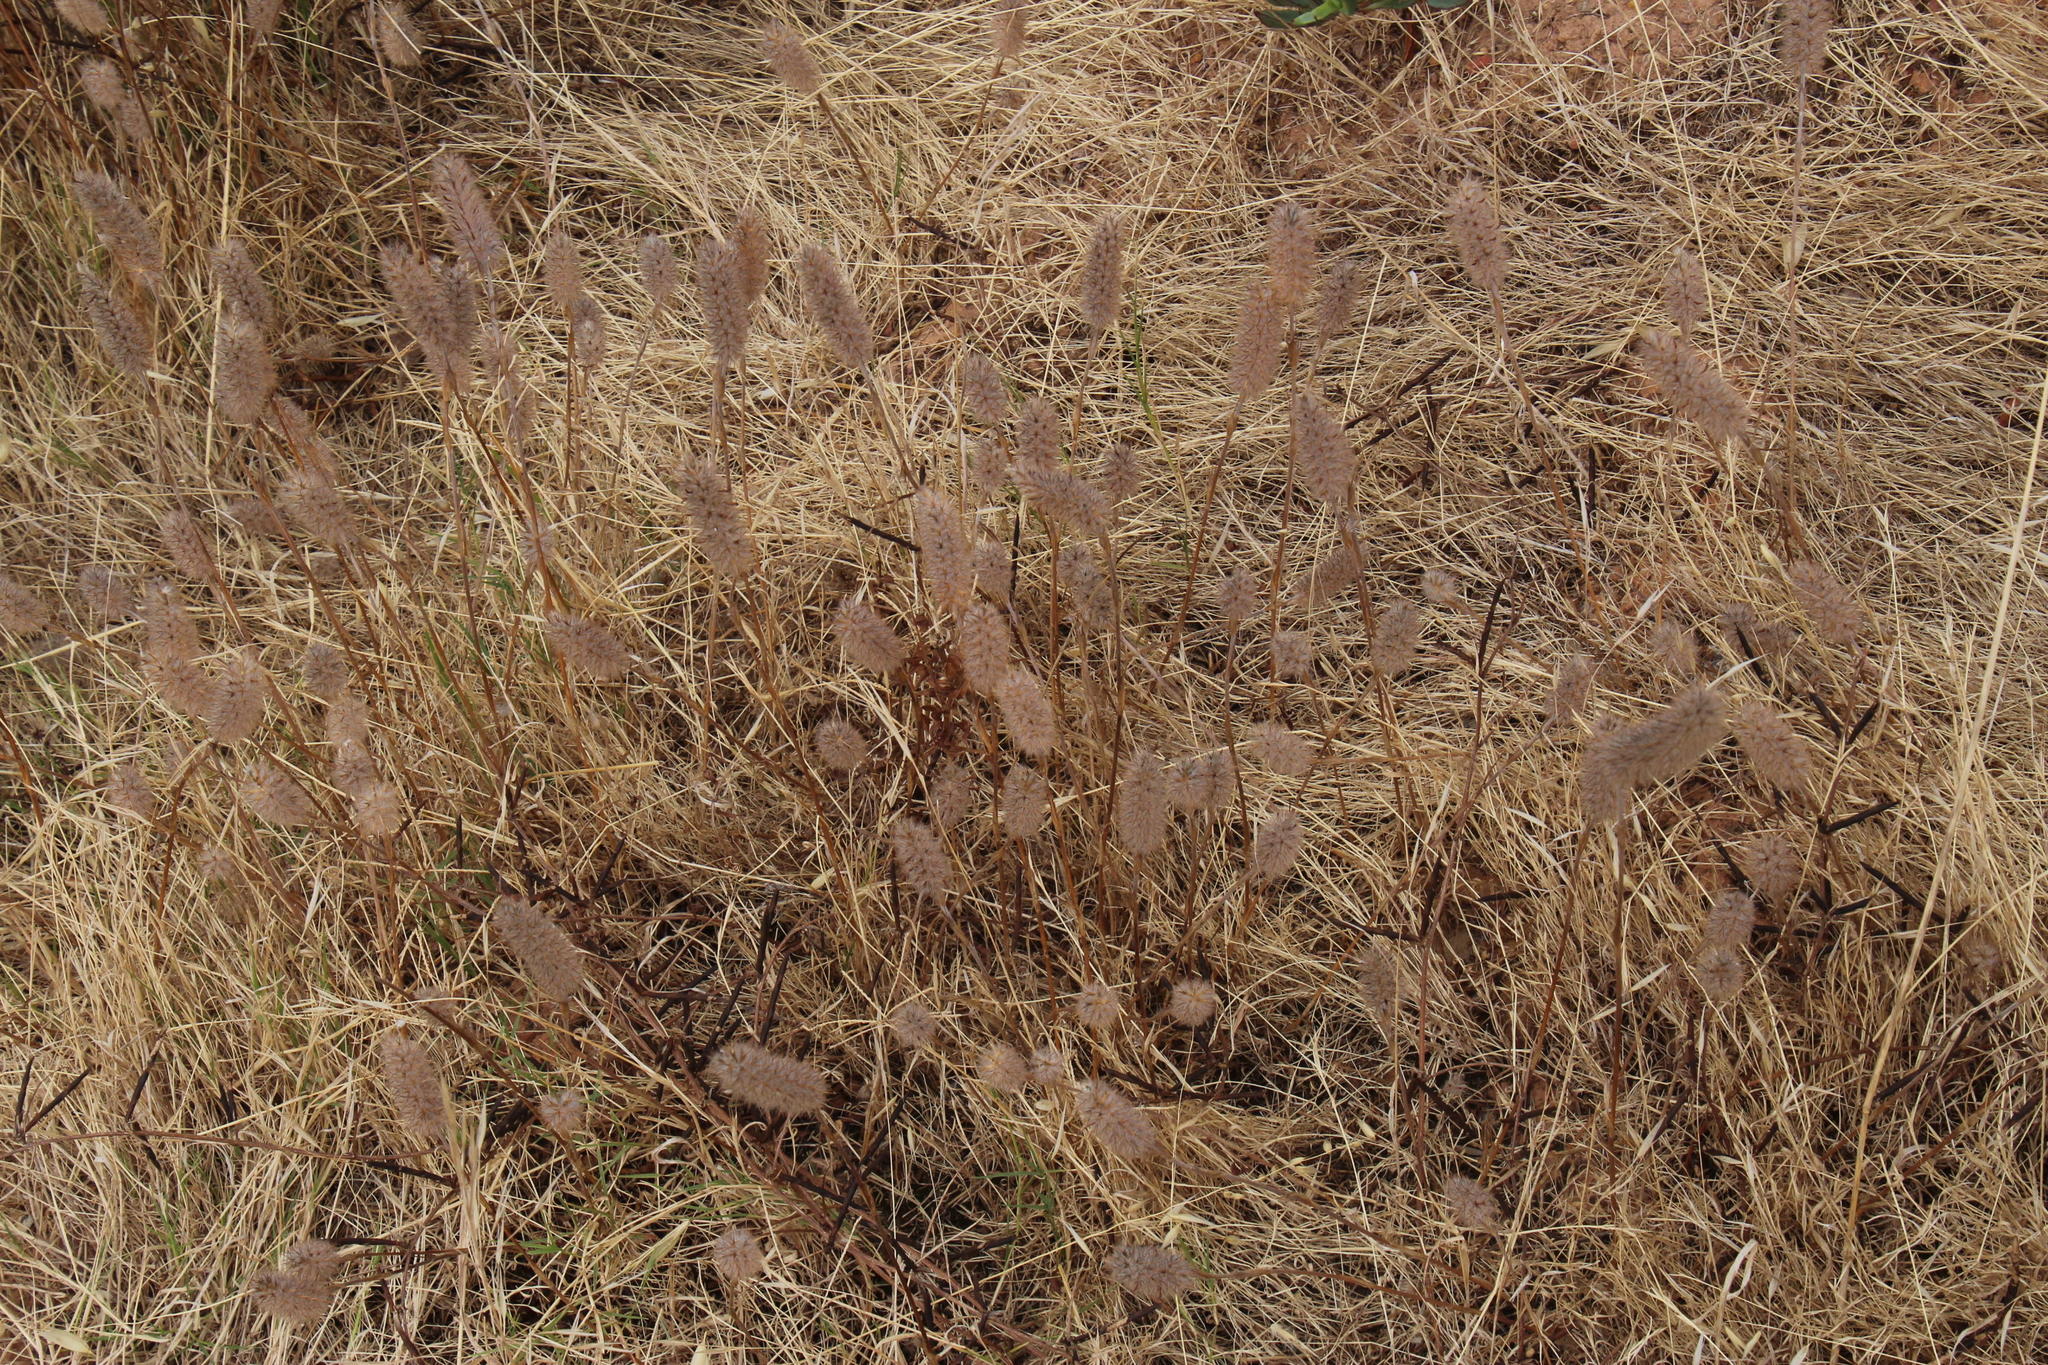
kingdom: Plantae
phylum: Tracheophyta
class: Magnoliopsida
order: Fabales
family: Fabaceae
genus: Trifolium
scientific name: Trifolium angustifolium
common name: Narrow clover
